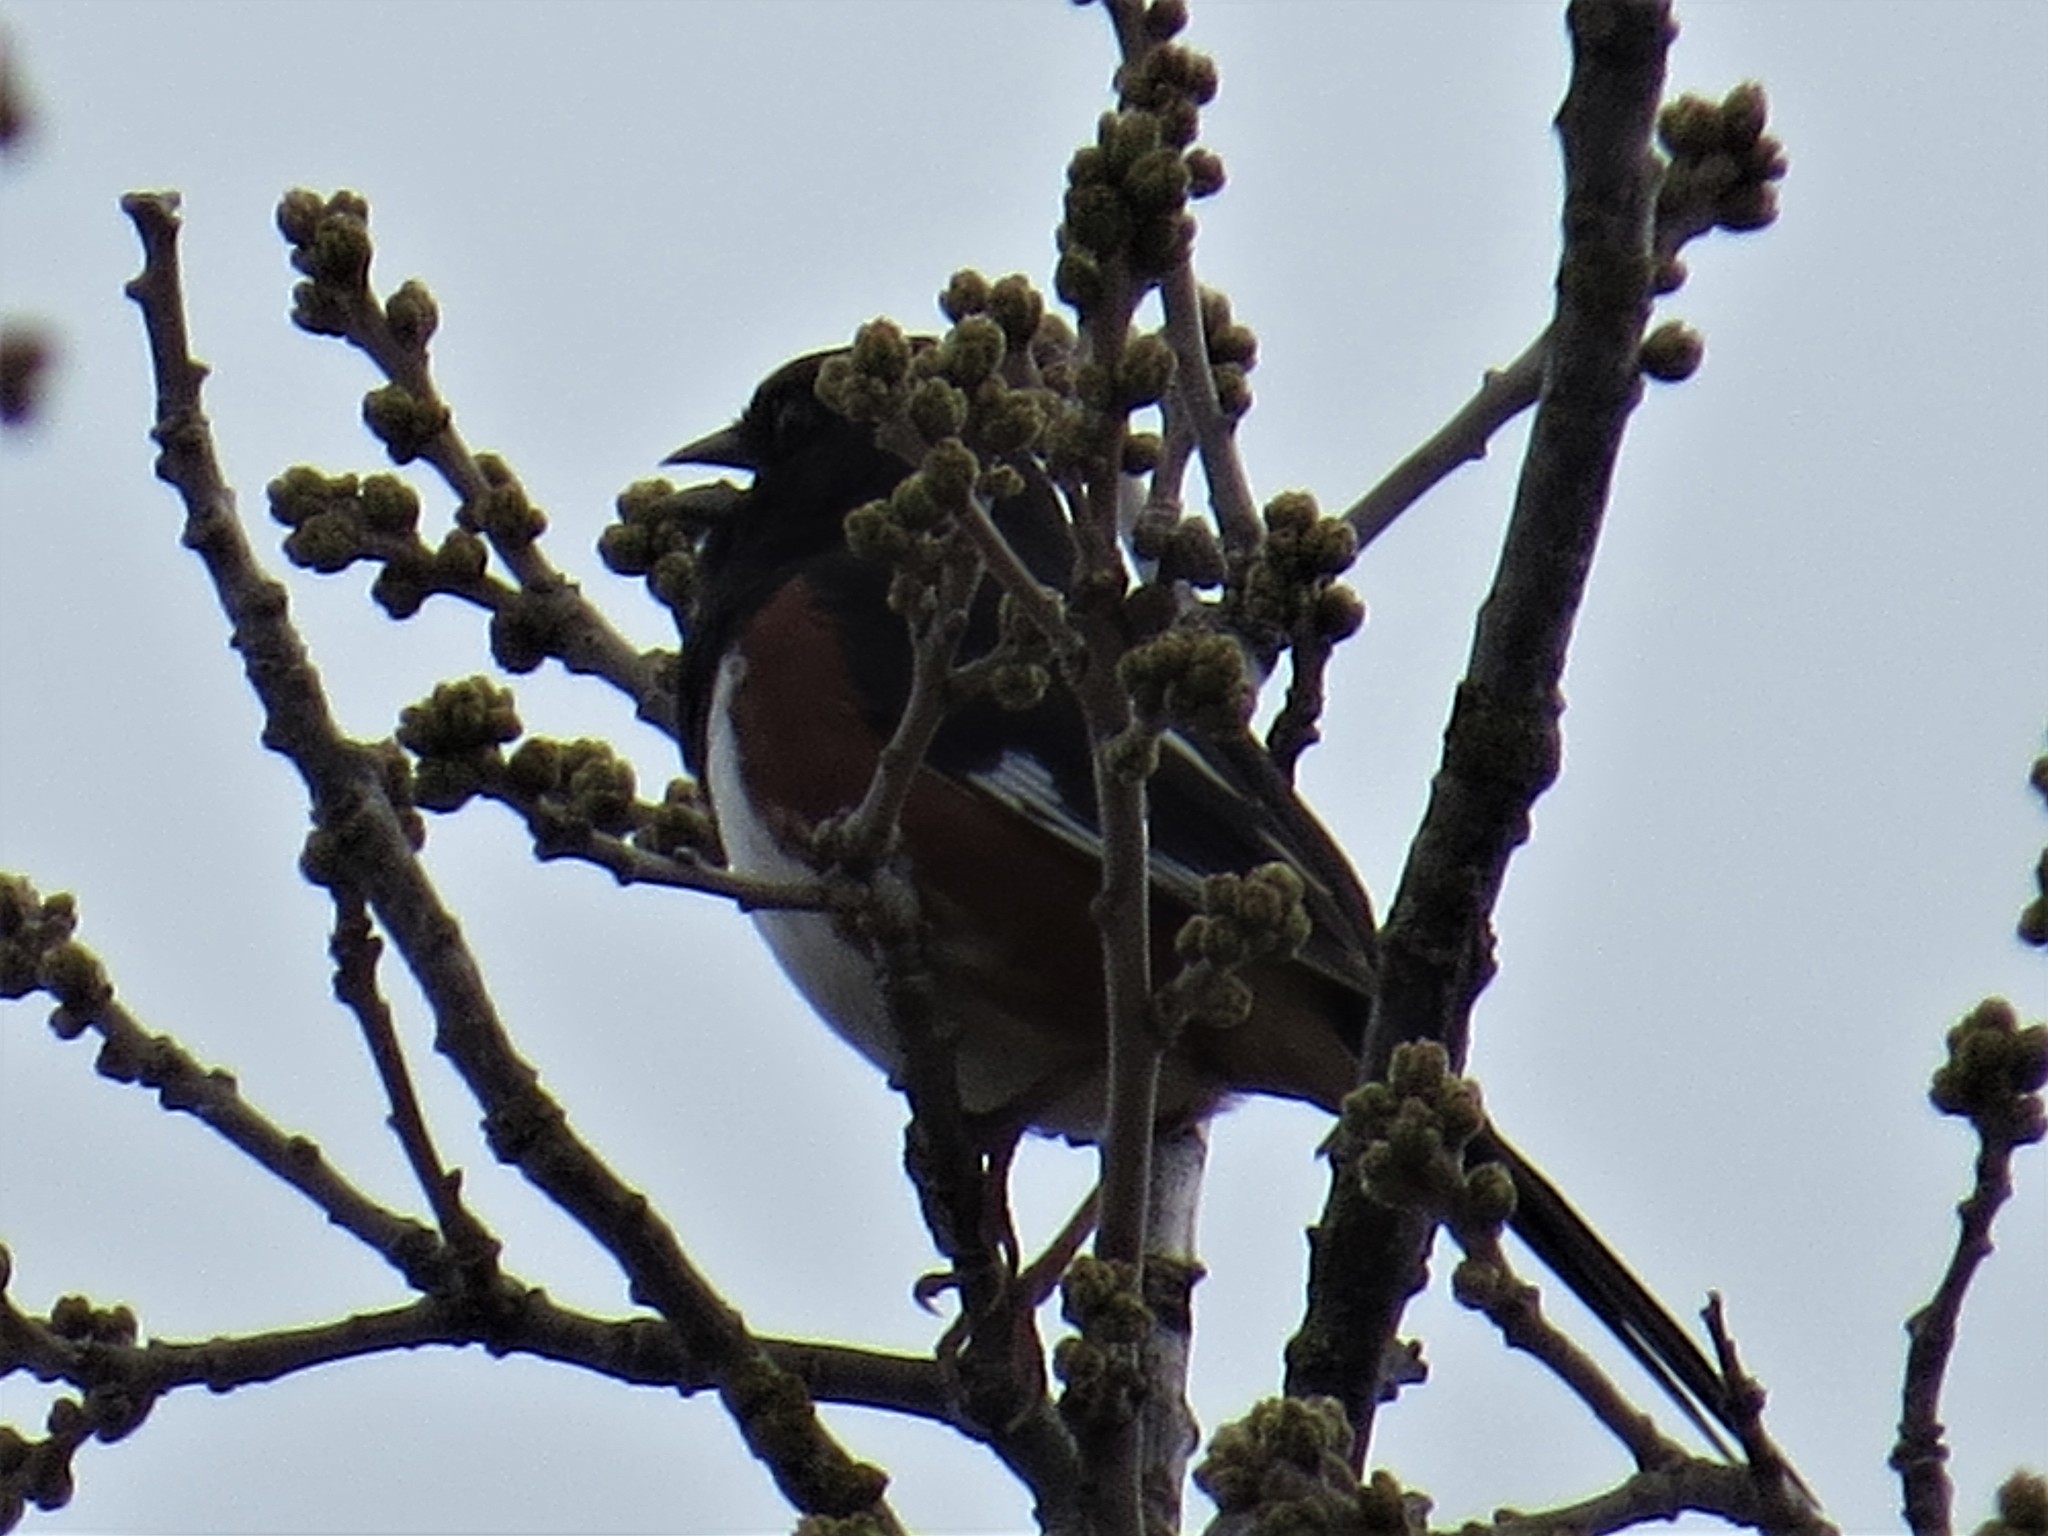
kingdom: Animalia
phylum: Chordata
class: Aves
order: Passeriformes
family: Passerellidae
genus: Pipilo
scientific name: Pipilo erythrophthalmus
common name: Eastern towhee
